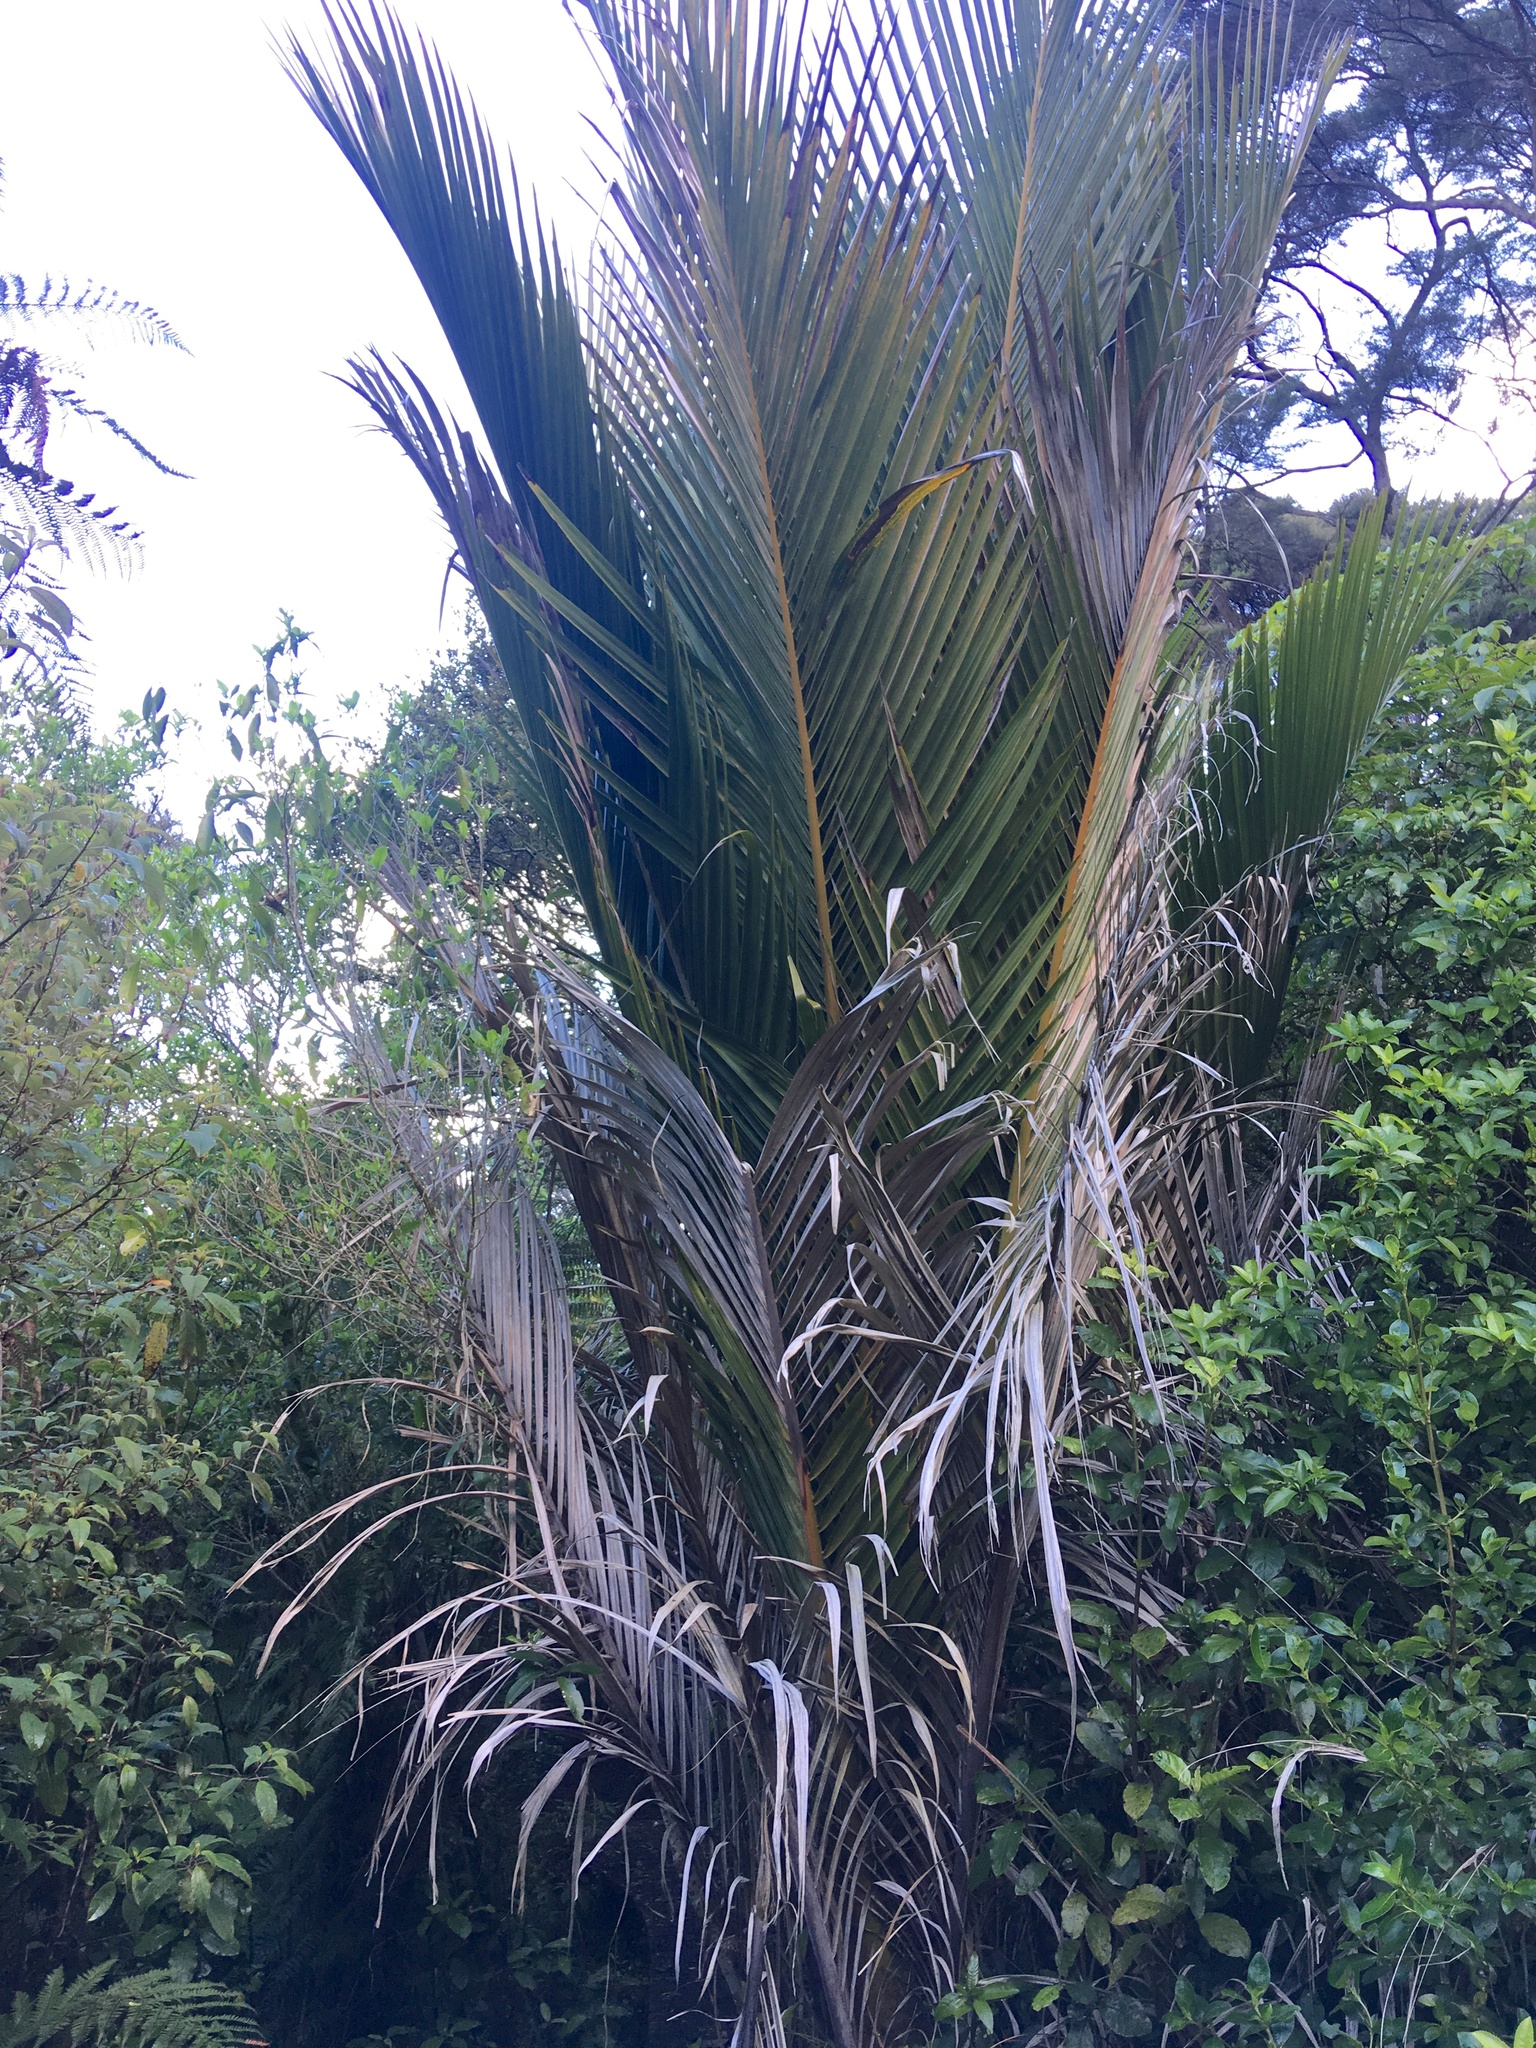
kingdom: Plantae
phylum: Tracheophyta
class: Liliopsida
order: Arecales
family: Arecaceae
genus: Rhopalostylis
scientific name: Rhopalostylis sapida
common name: Feather-duster palm
